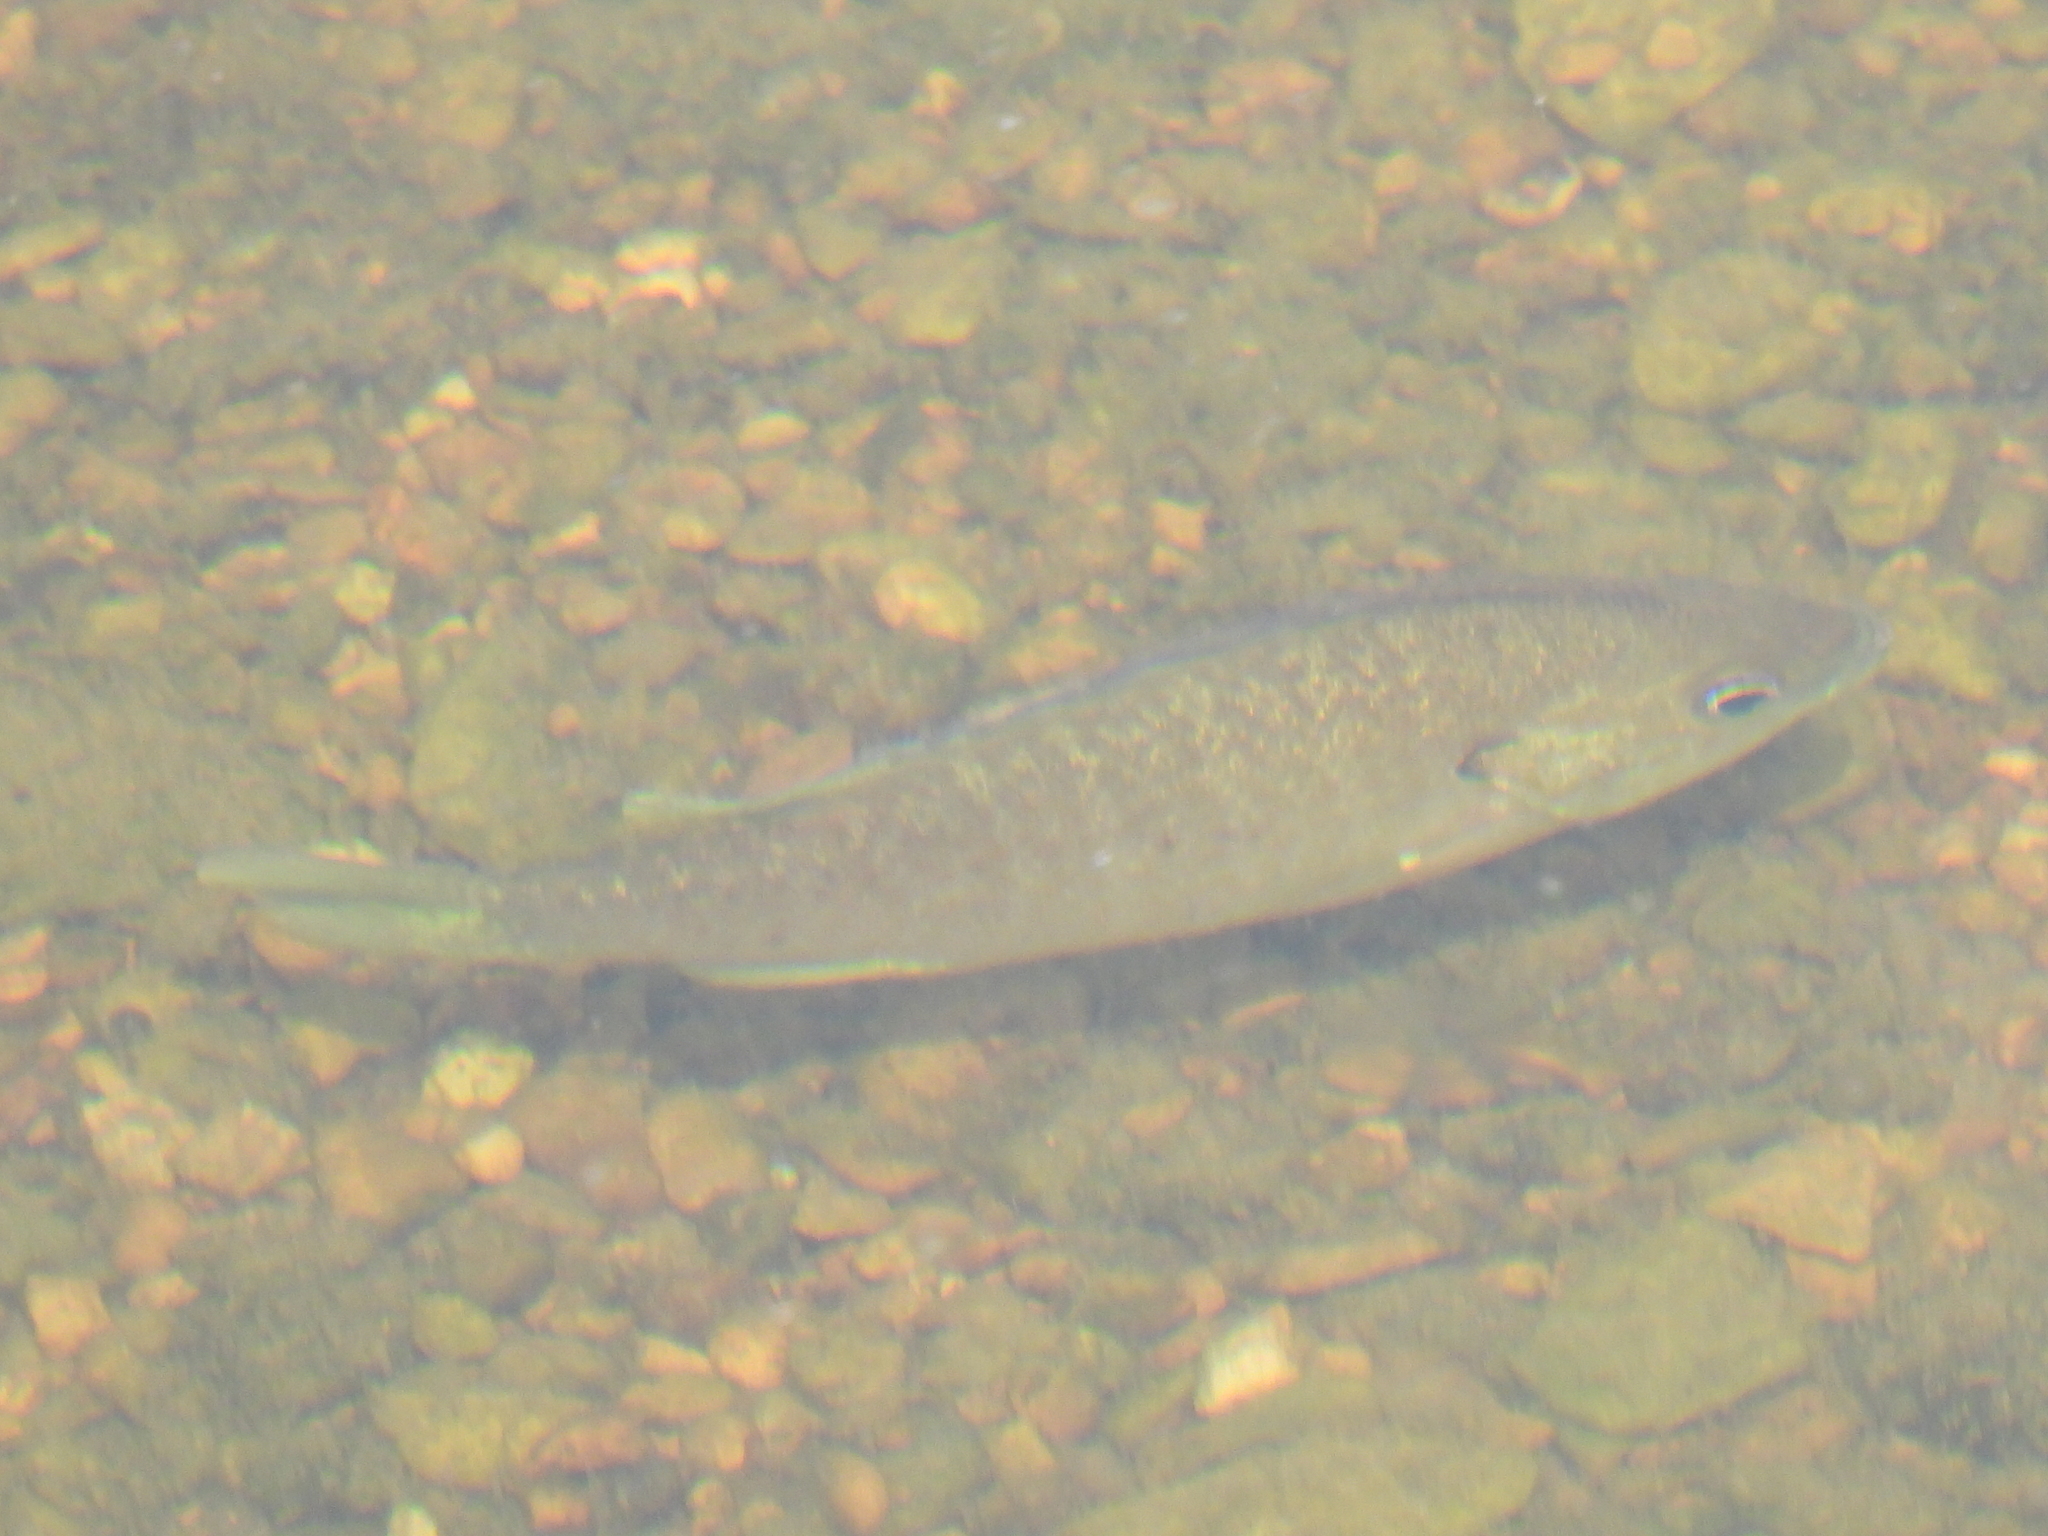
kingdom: Animalia
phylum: Chordata
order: Perciformes
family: Centrarchidae
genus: Lepomis
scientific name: Lepomis macrochirus
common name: Bluegill
